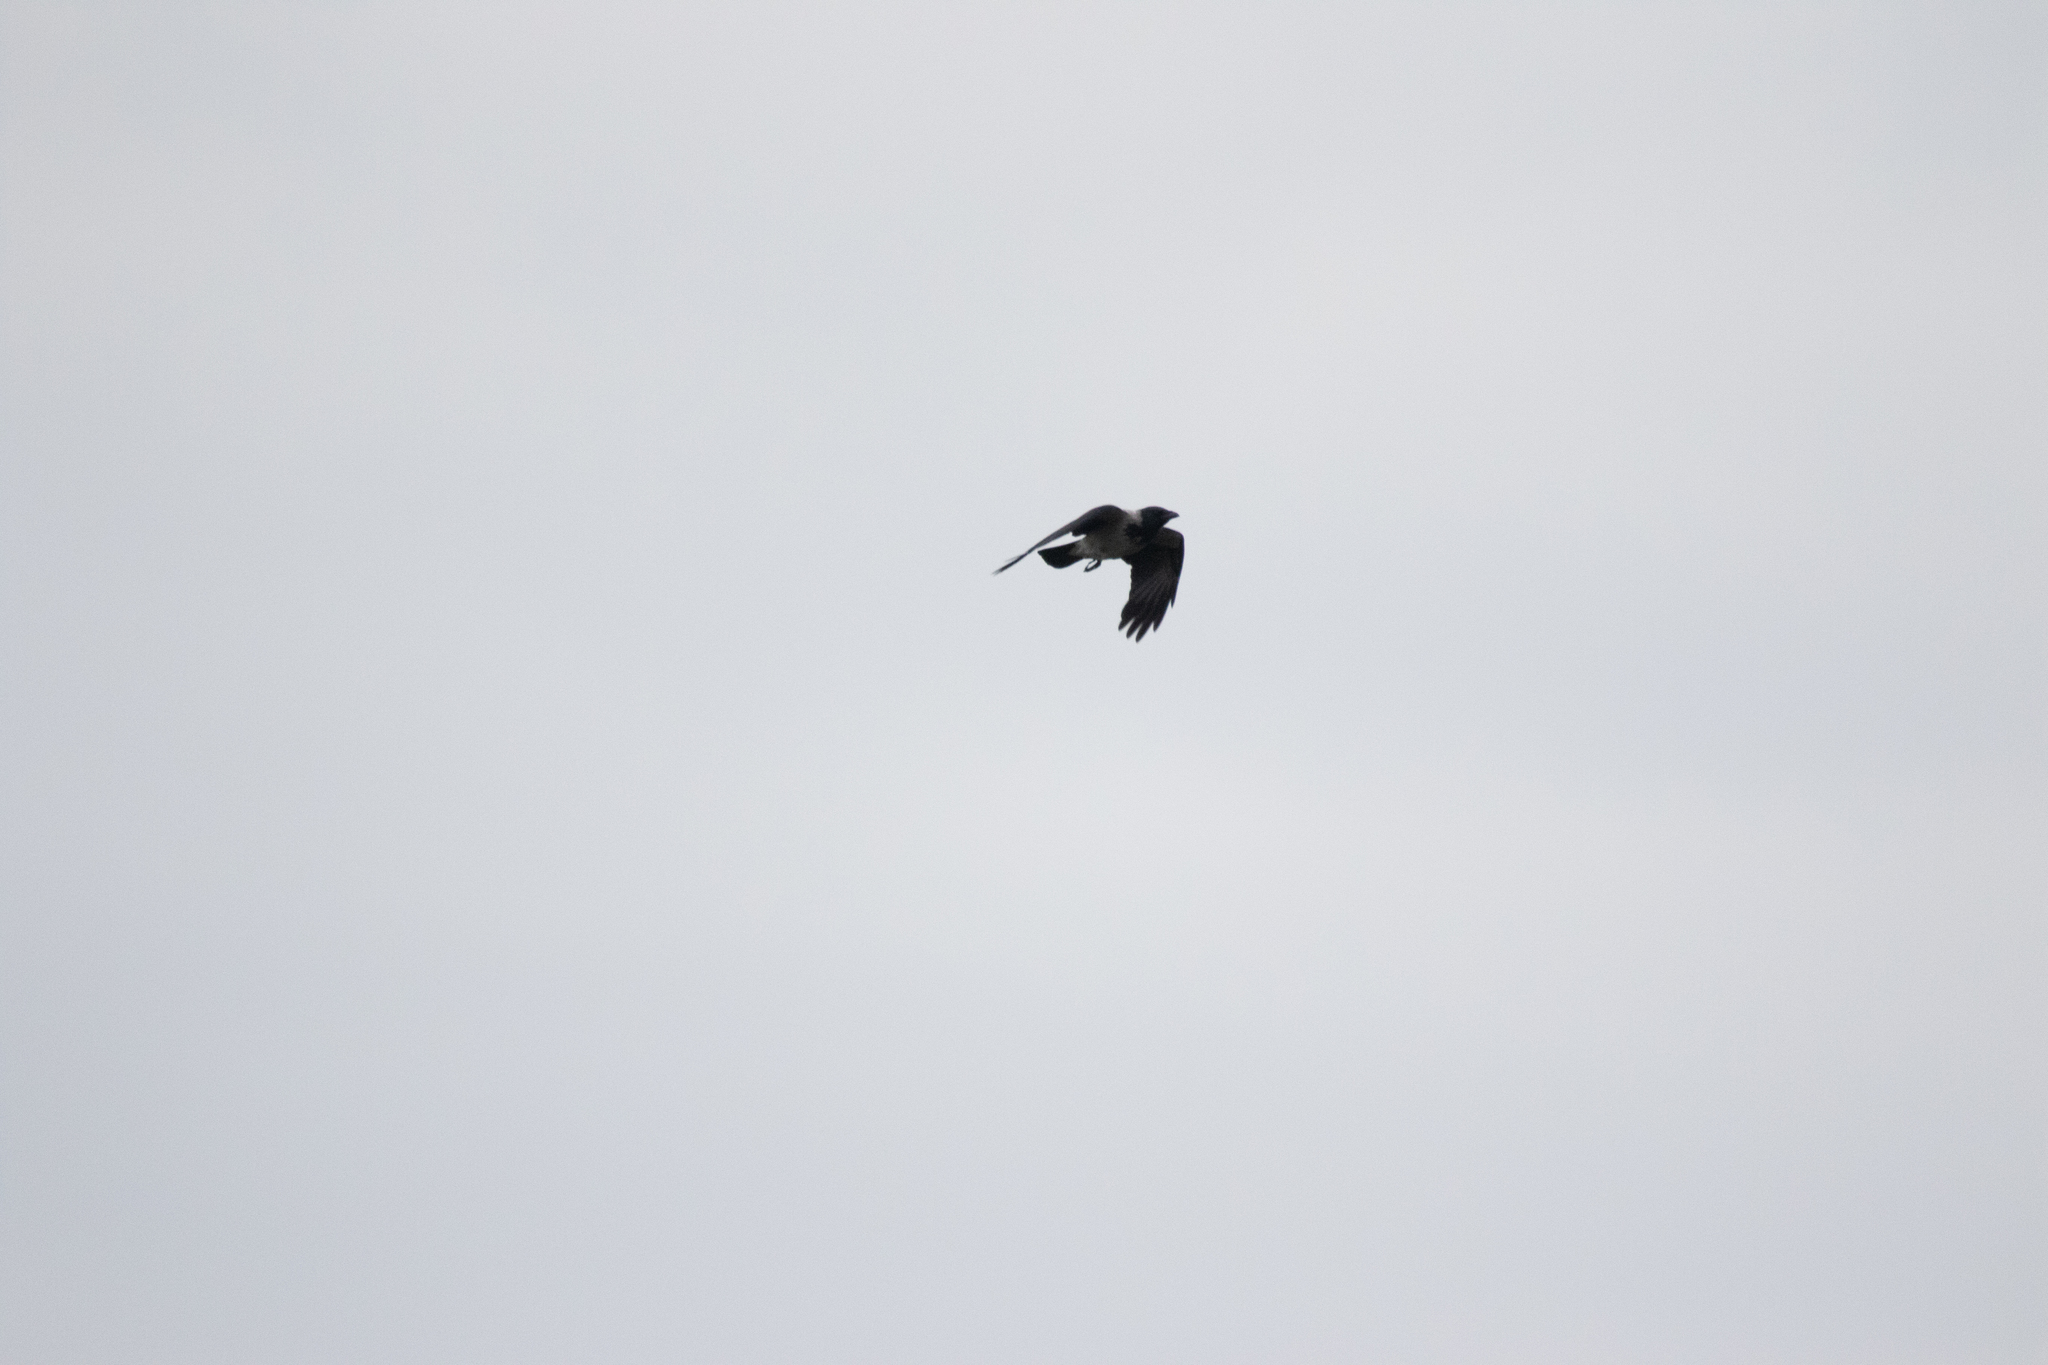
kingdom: Animalia
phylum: Chordata
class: Aves
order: Passeriformes
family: Corvidae
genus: Corvus
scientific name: Corvus cornix
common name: Hooded crow
